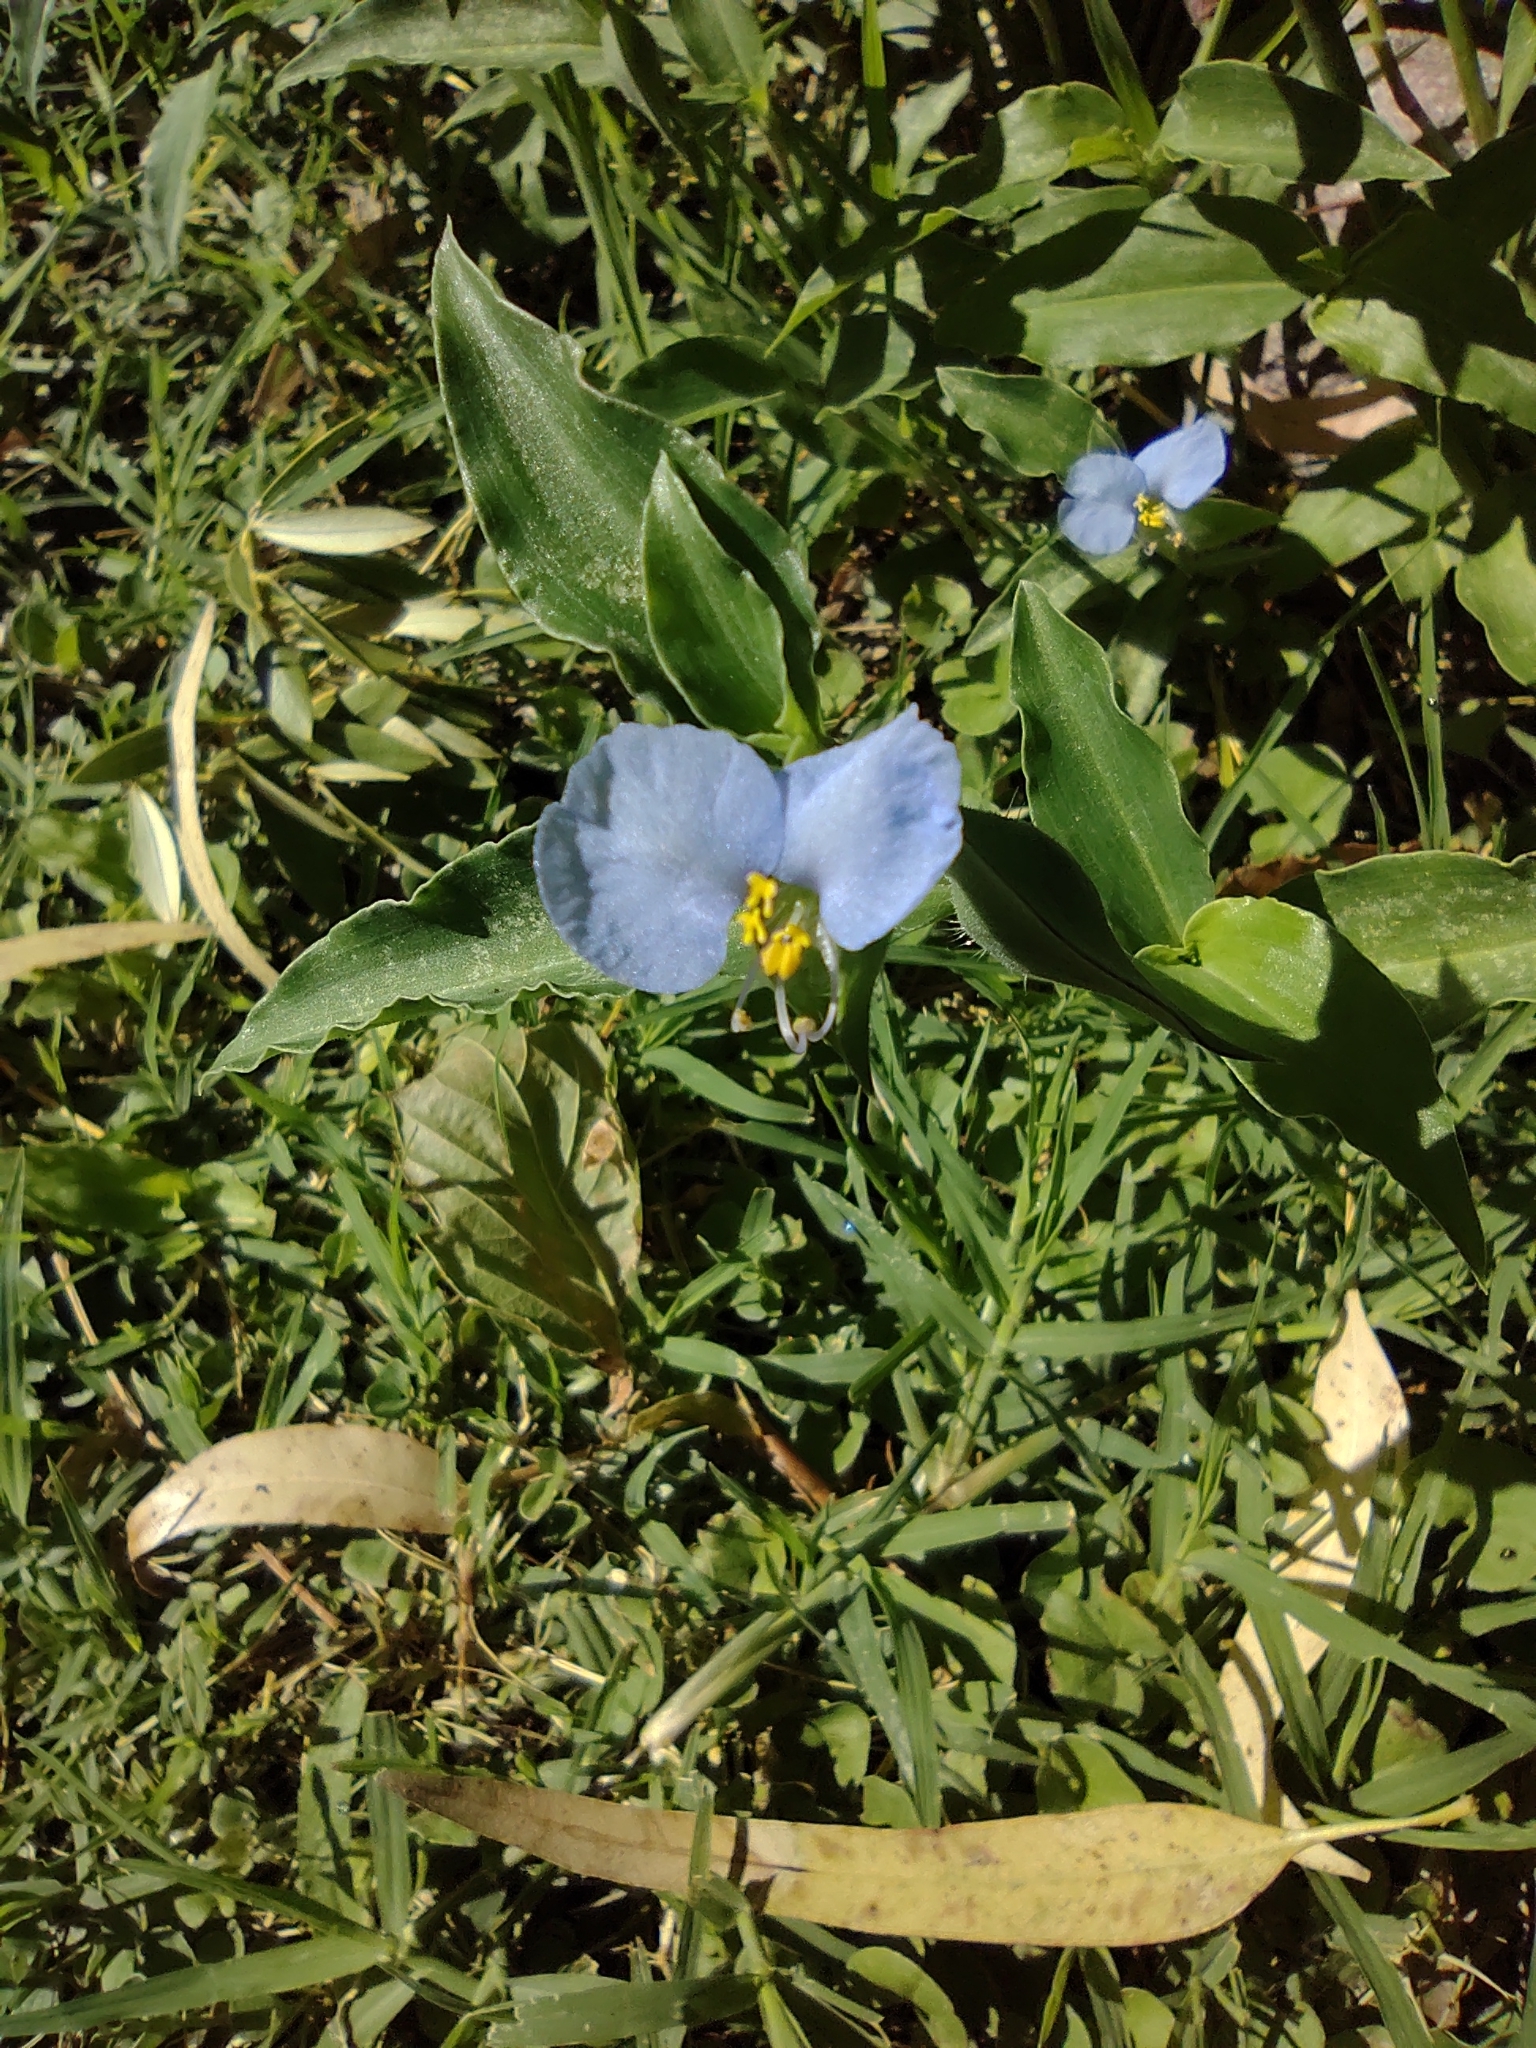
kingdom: Plantae
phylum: Tracheophyta
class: Liliopsida
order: Commelinales
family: Commelinaceae
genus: Commelina
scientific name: Commelina erecta
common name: Blousel blommetjie
